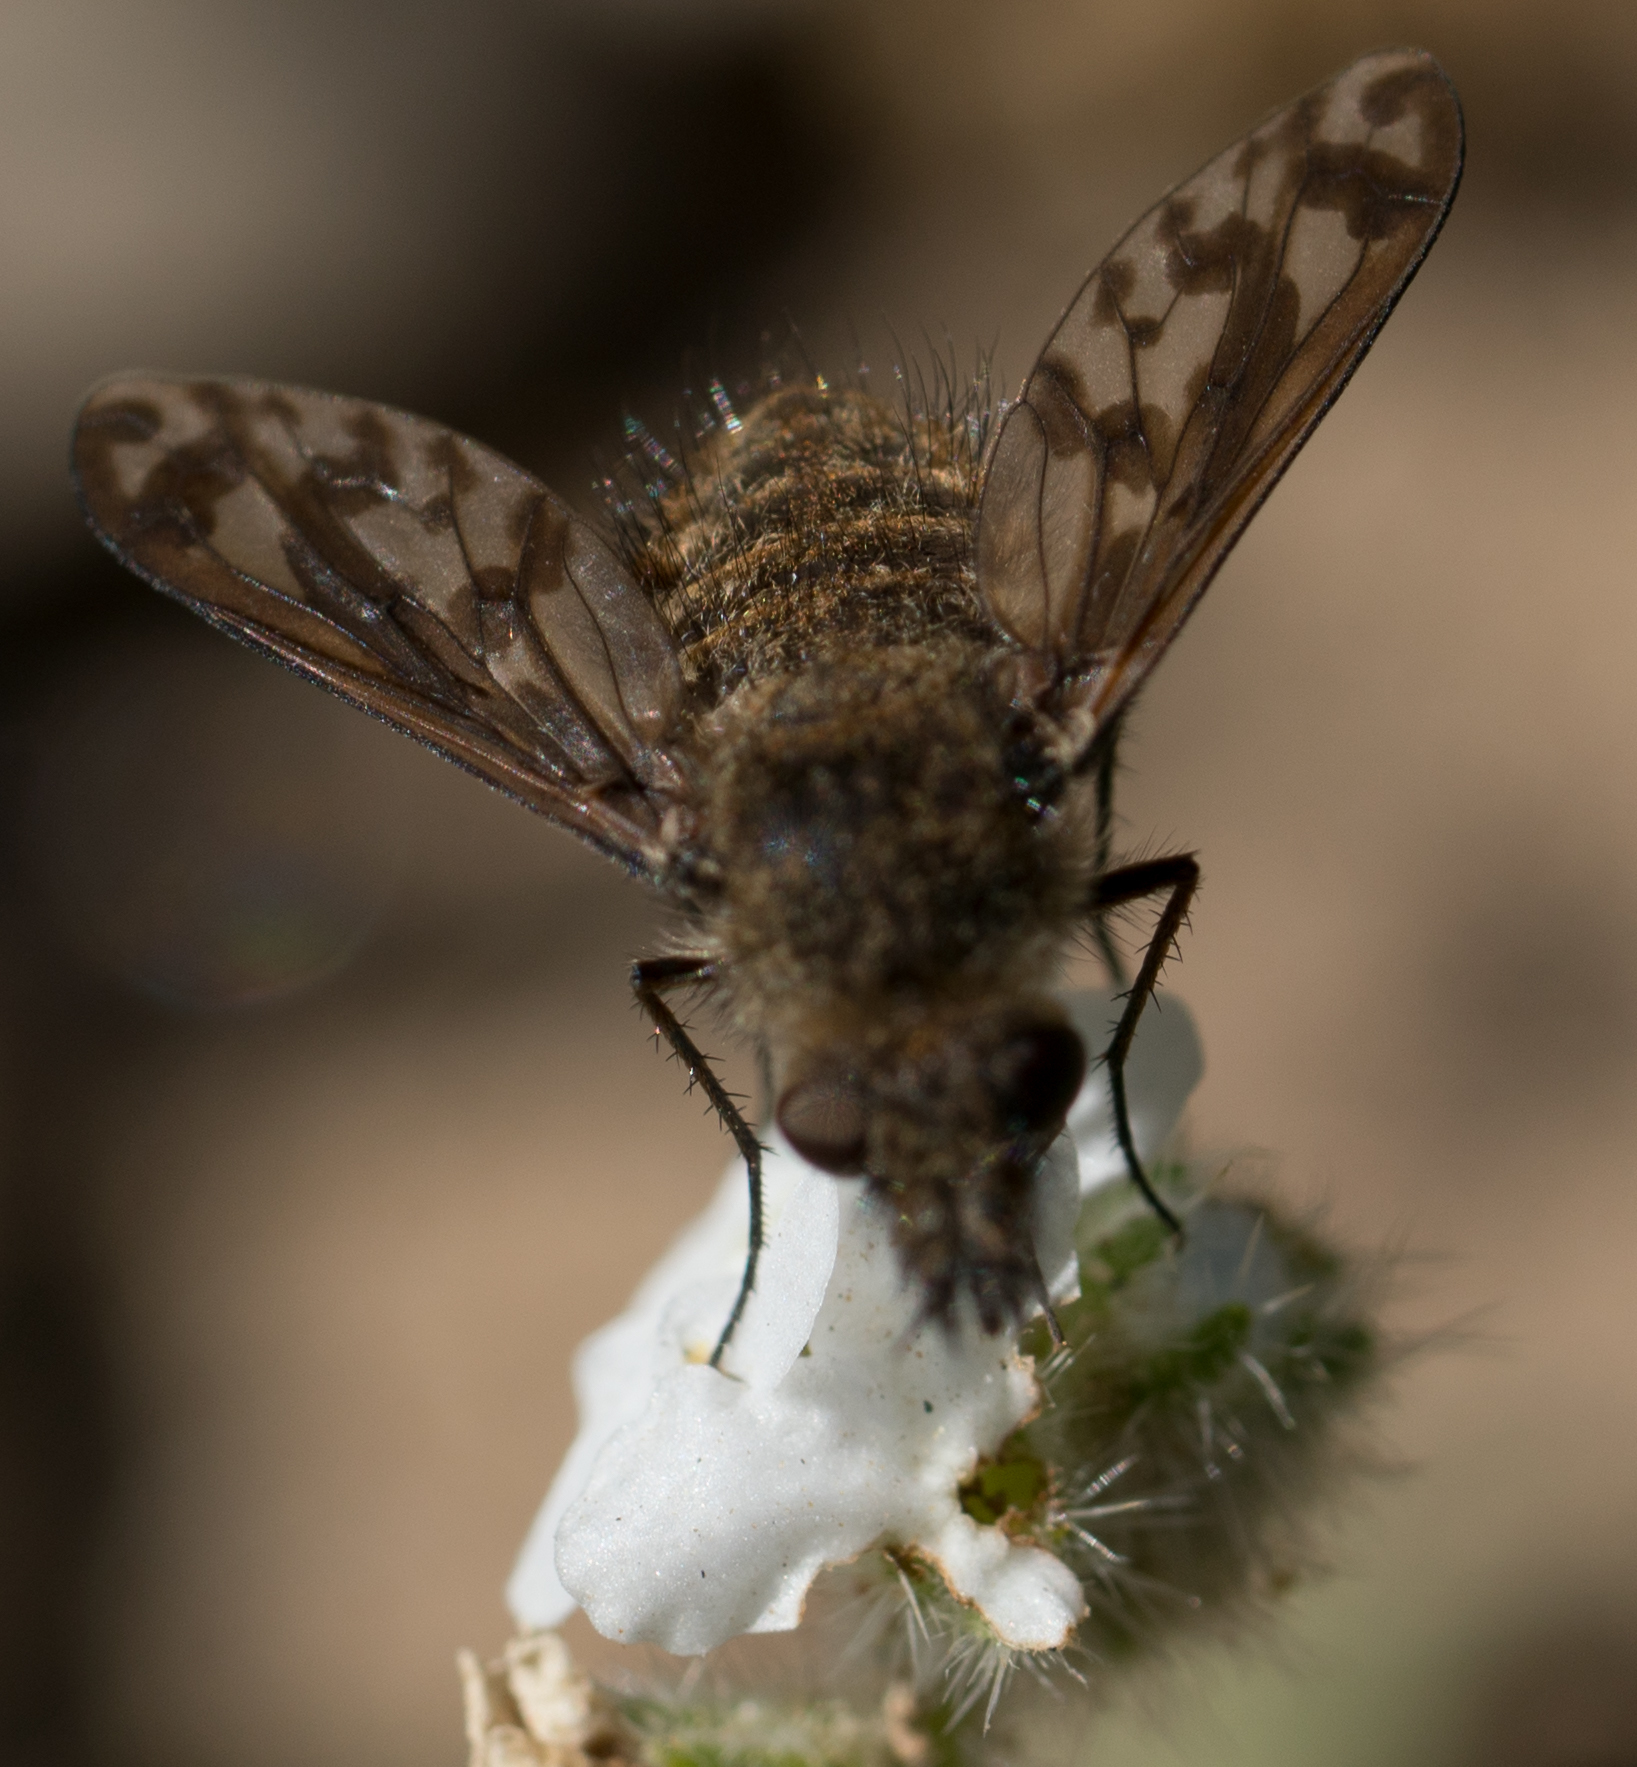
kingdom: Animalia
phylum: Arthropoda
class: Insecta
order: Diptera
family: Bombyliidae
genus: Conophorus
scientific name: Conophorus fenestratus
